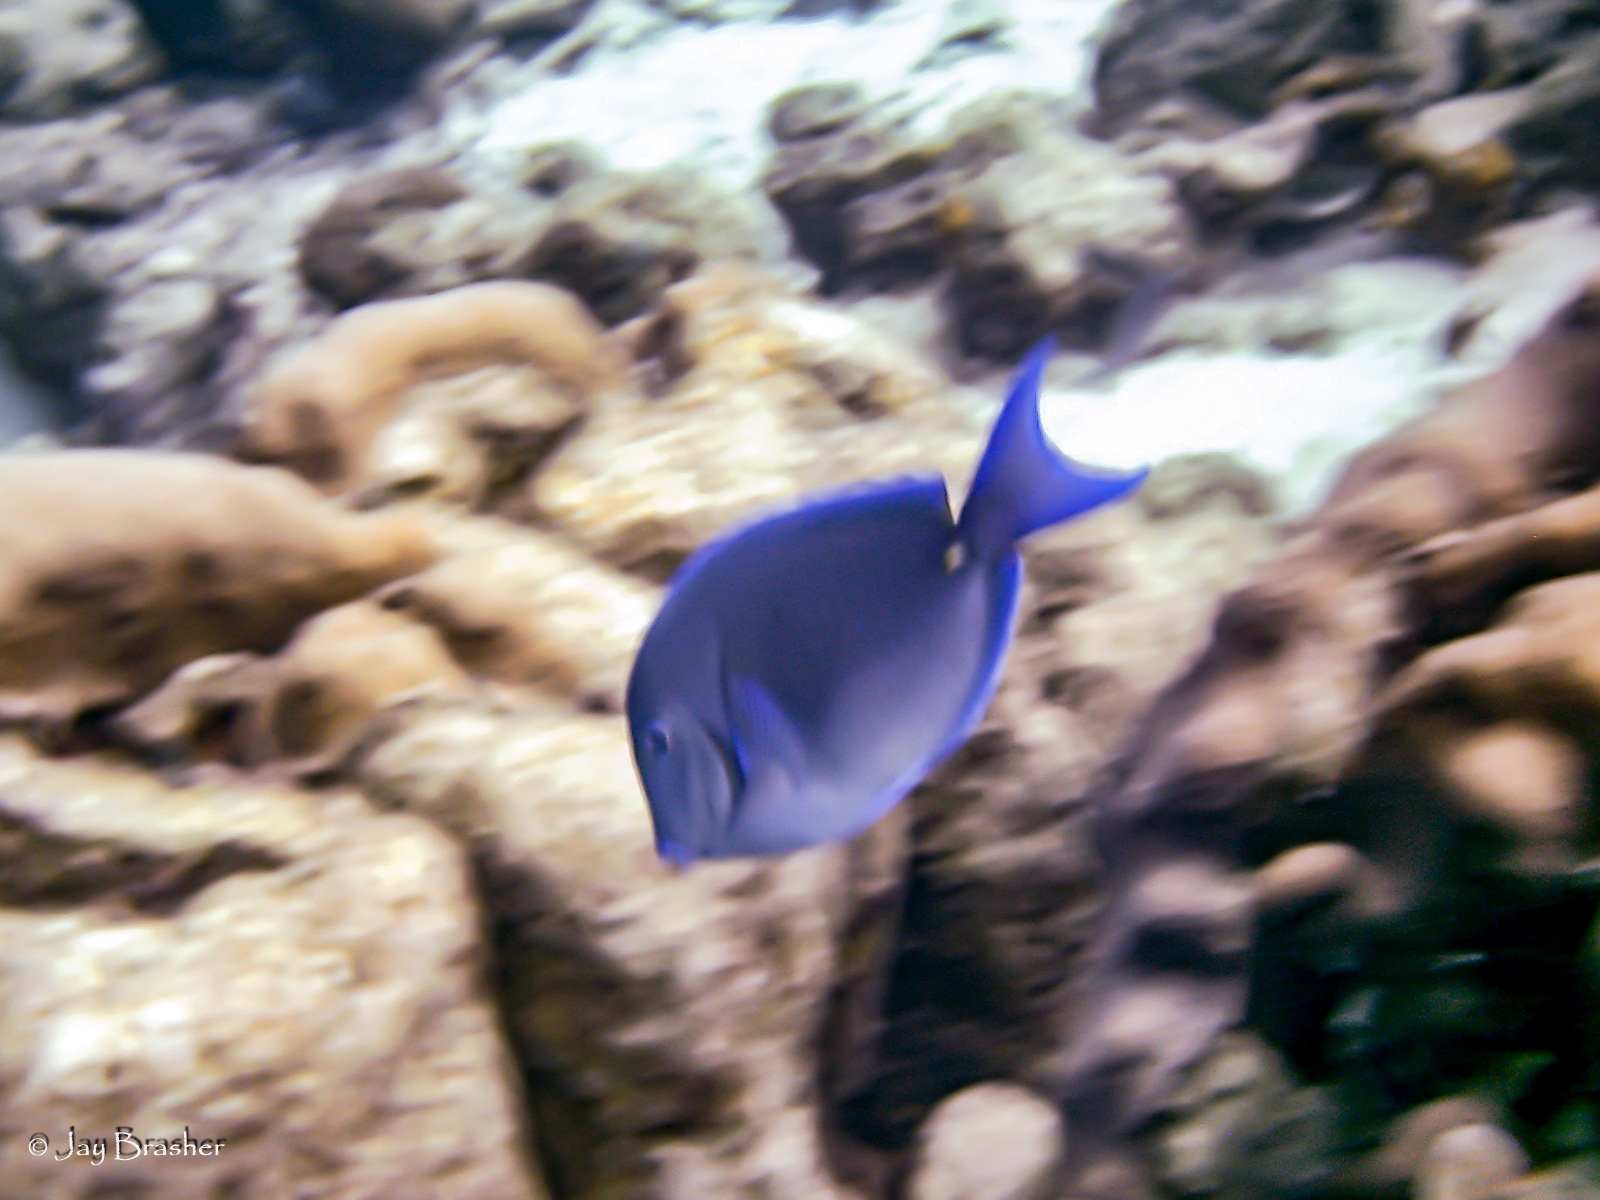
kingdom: Animalia
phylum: Chordata
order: Perciformes
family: Acanthuridae
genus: Acanthurus
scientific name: Acanthurus coeruleus
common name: Blue tang
